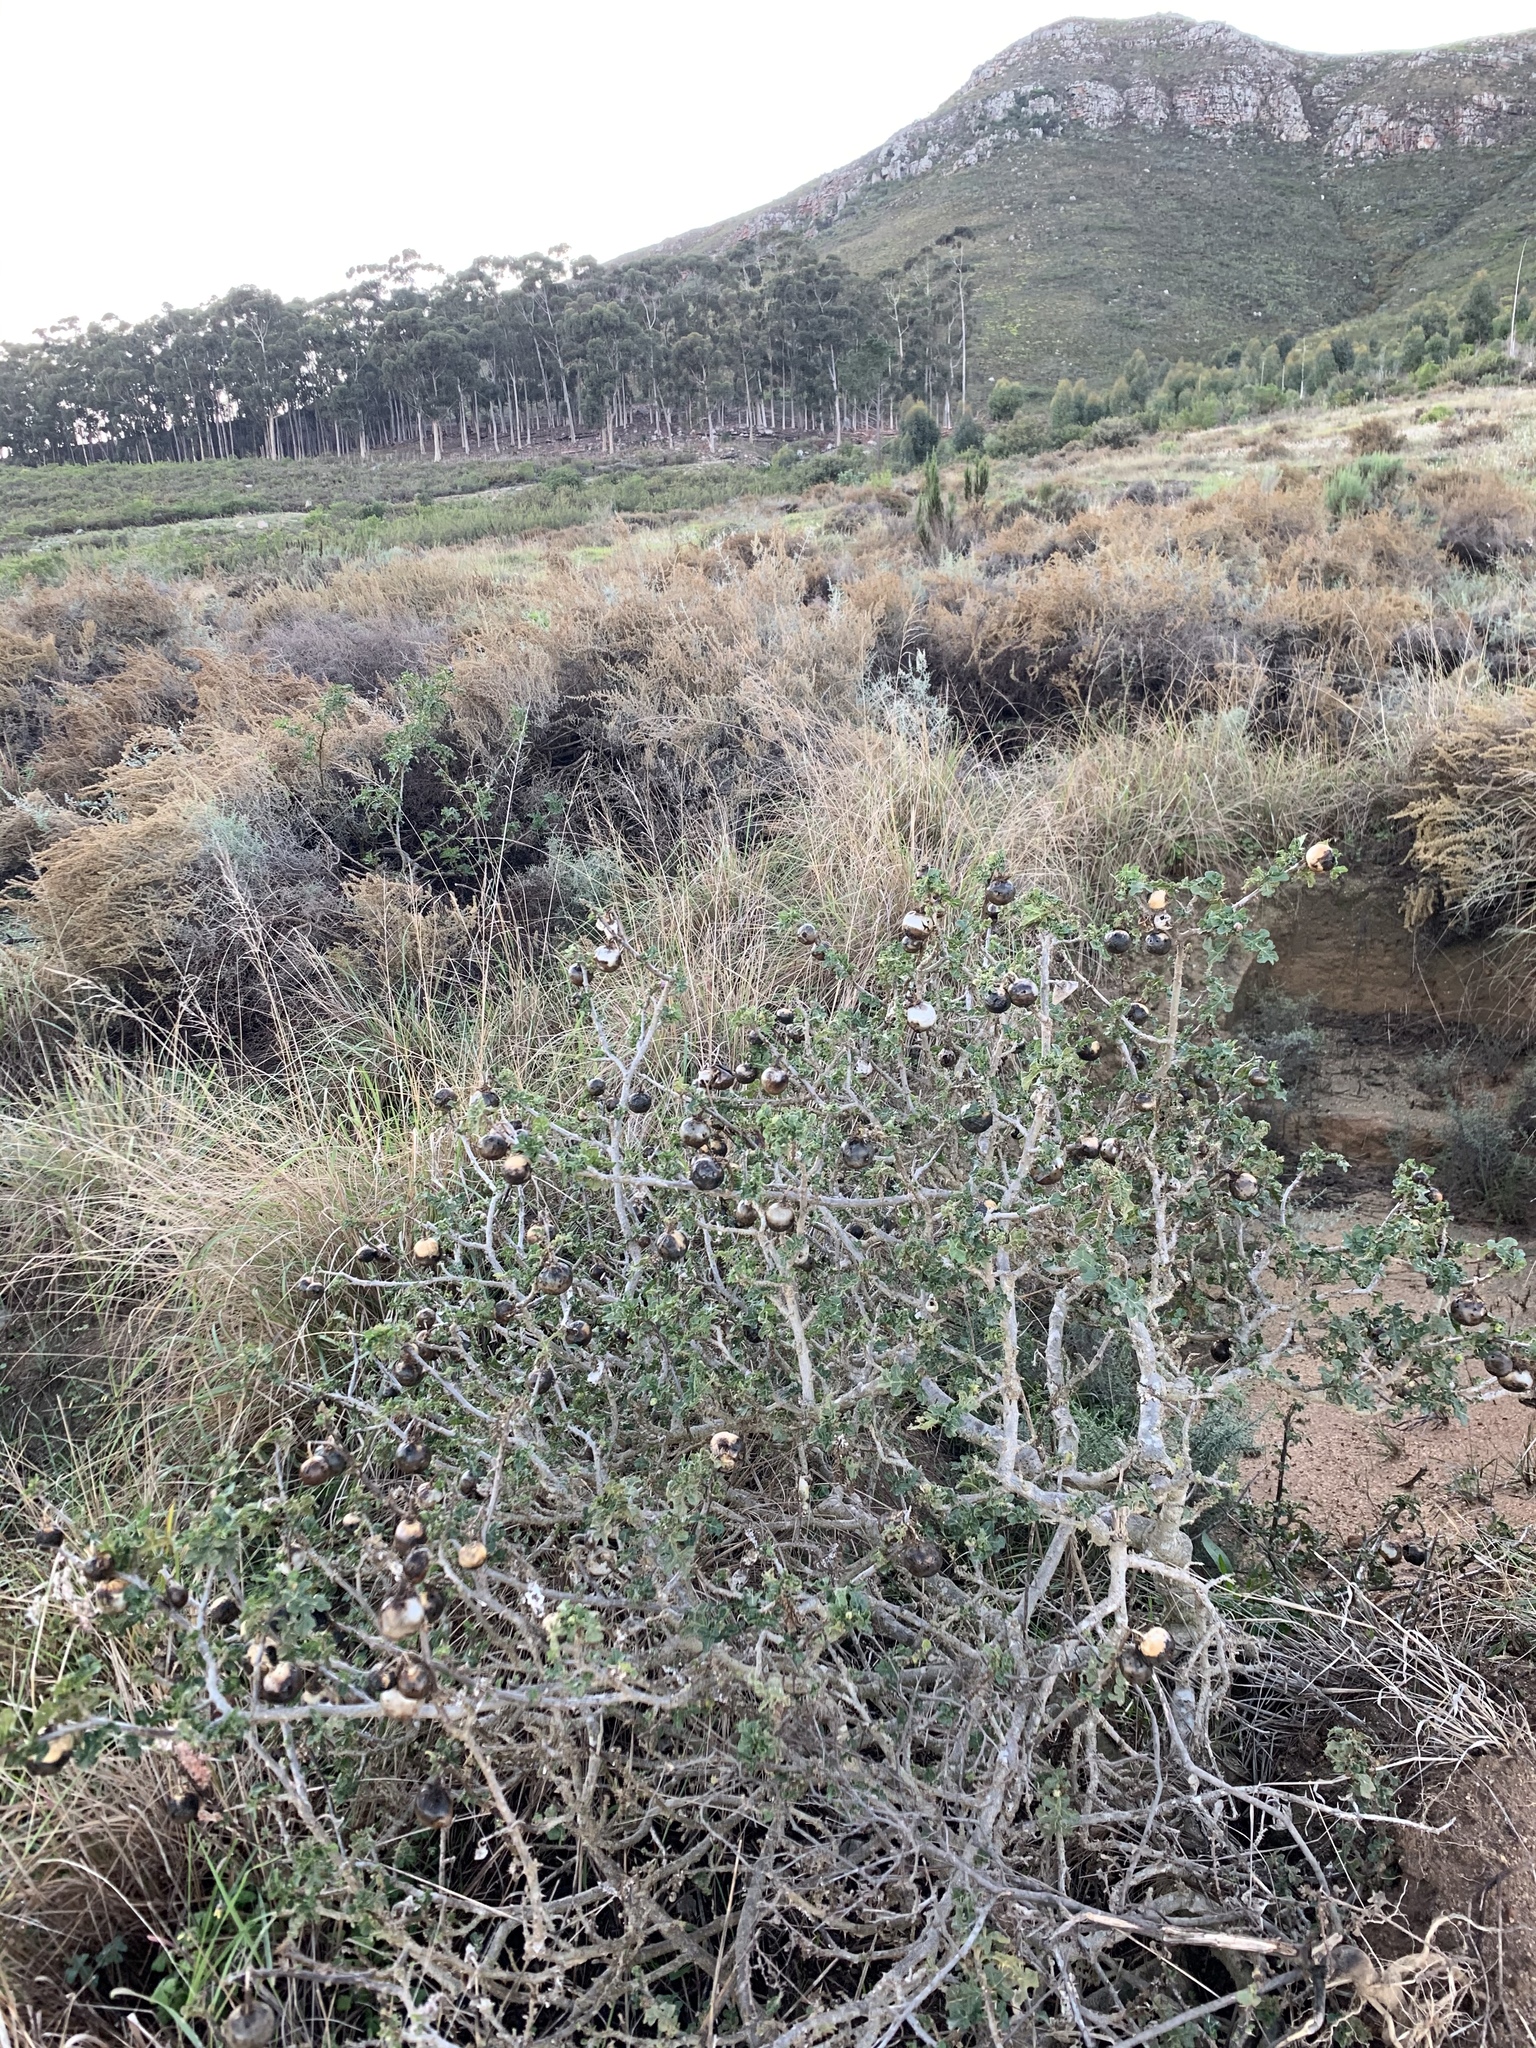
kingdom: Plantae
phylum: Tracheophyta
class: Magnoliopsida
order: Solanales
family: Solanaceae
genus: Solanum
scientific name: Solanum linnaeanum
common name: Nightshade
